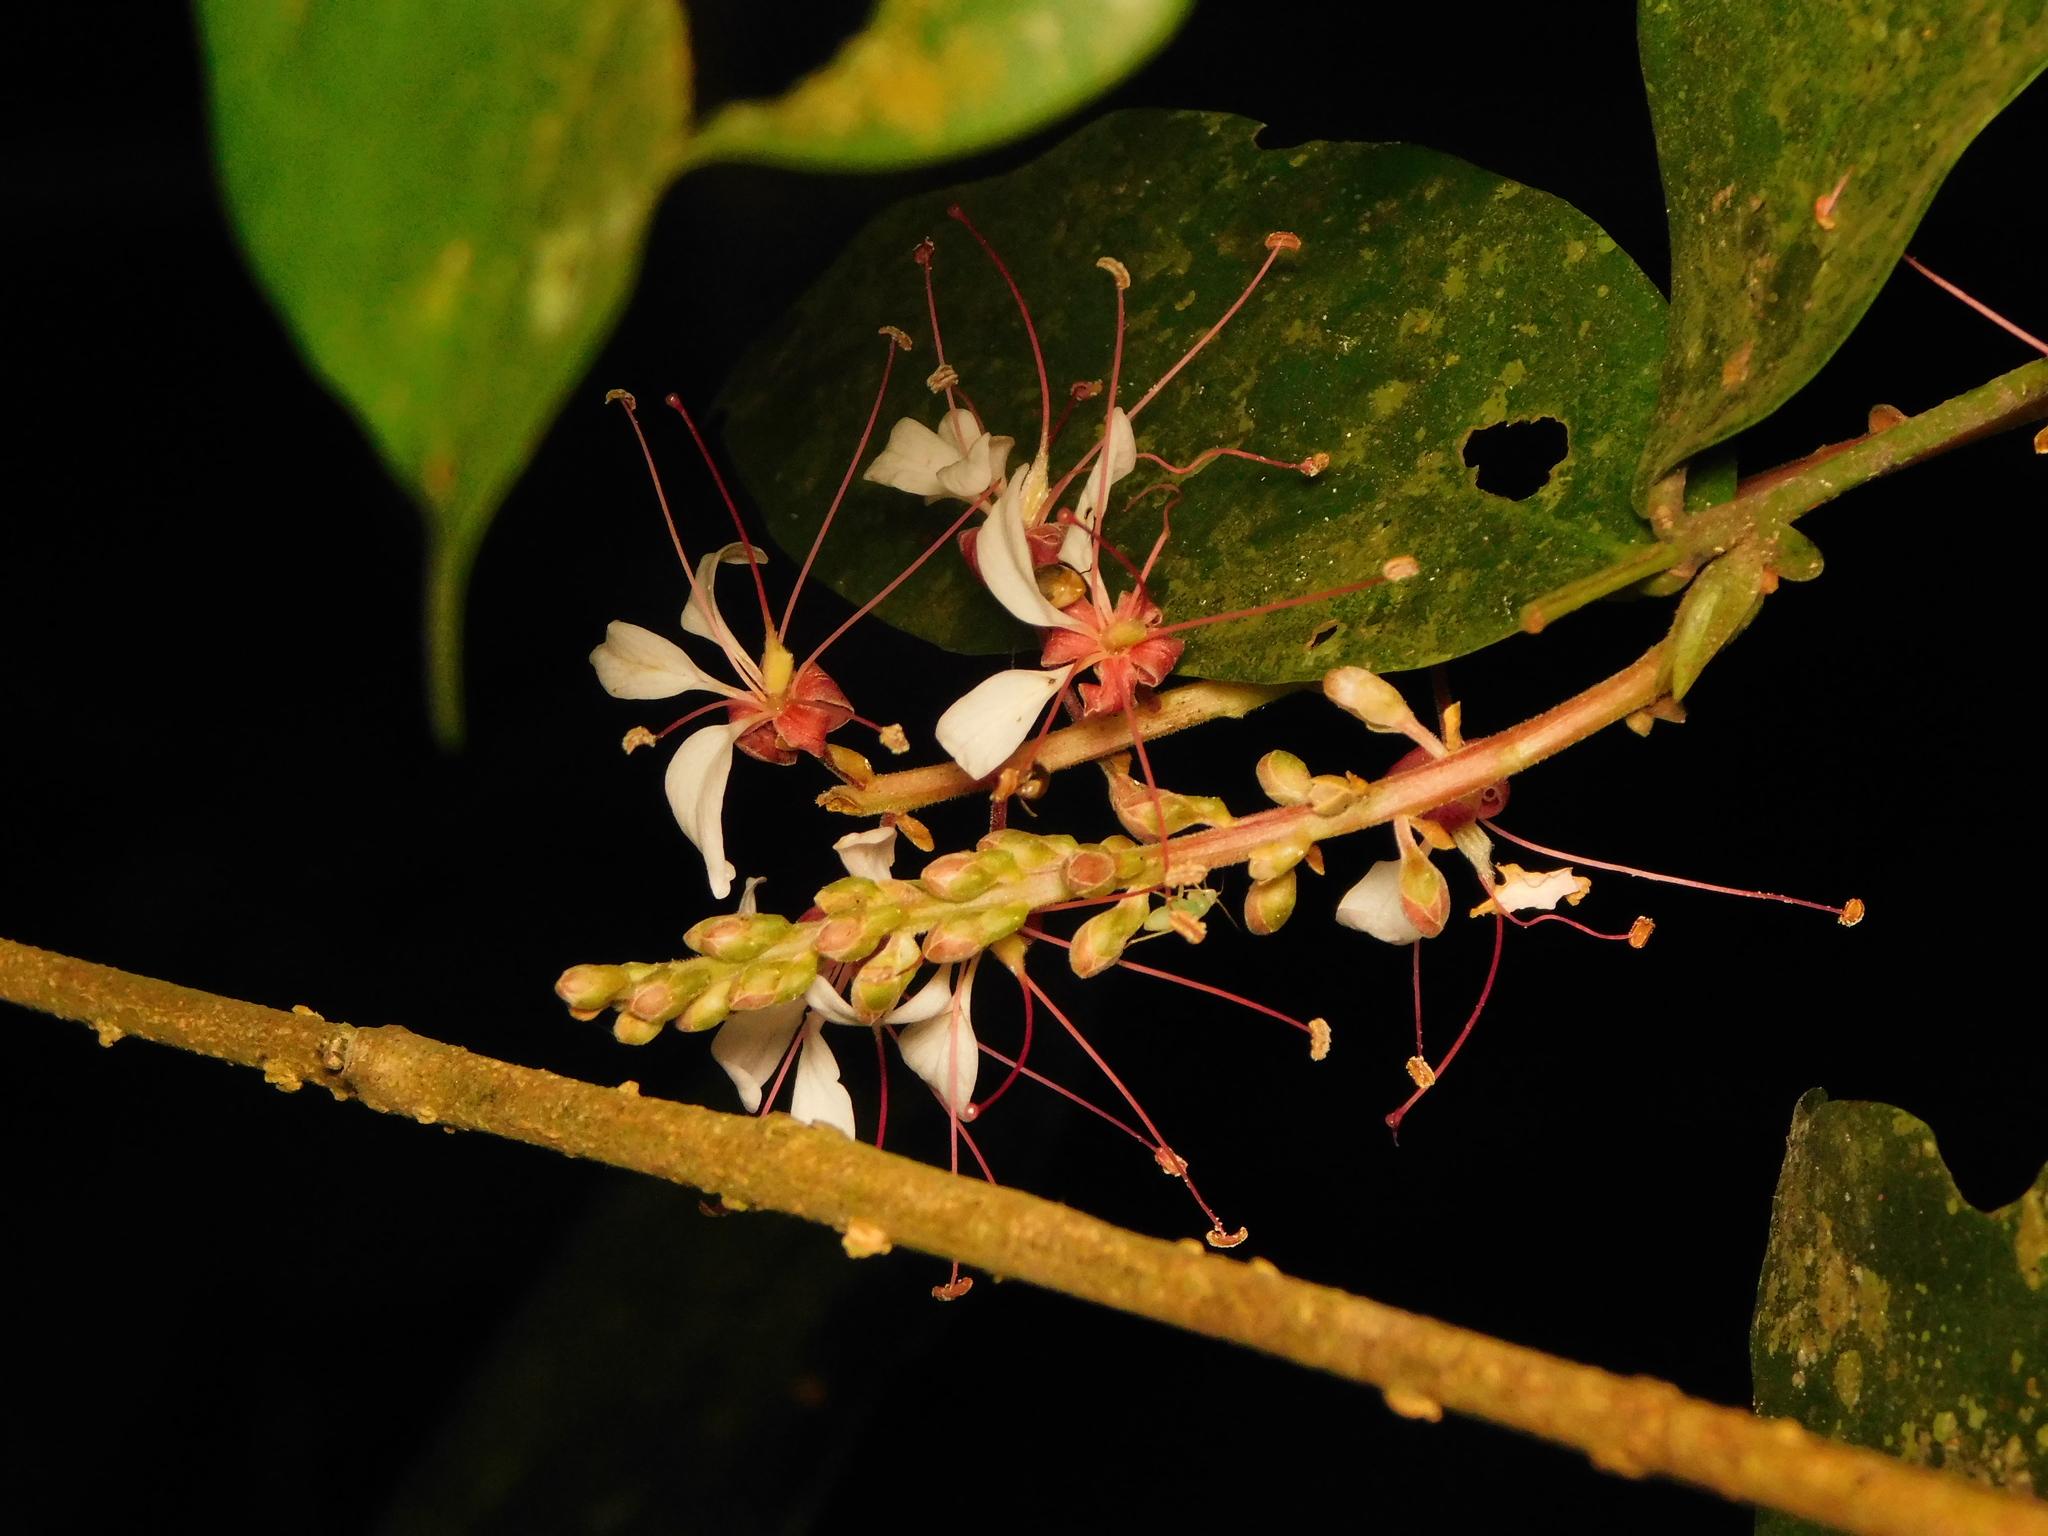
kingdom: Plantae
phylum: Tracheophyta
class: Magnoliopsida
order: Fabales
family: Fabaceae
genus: Humboldtia
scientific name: Humboldtia brunonis
